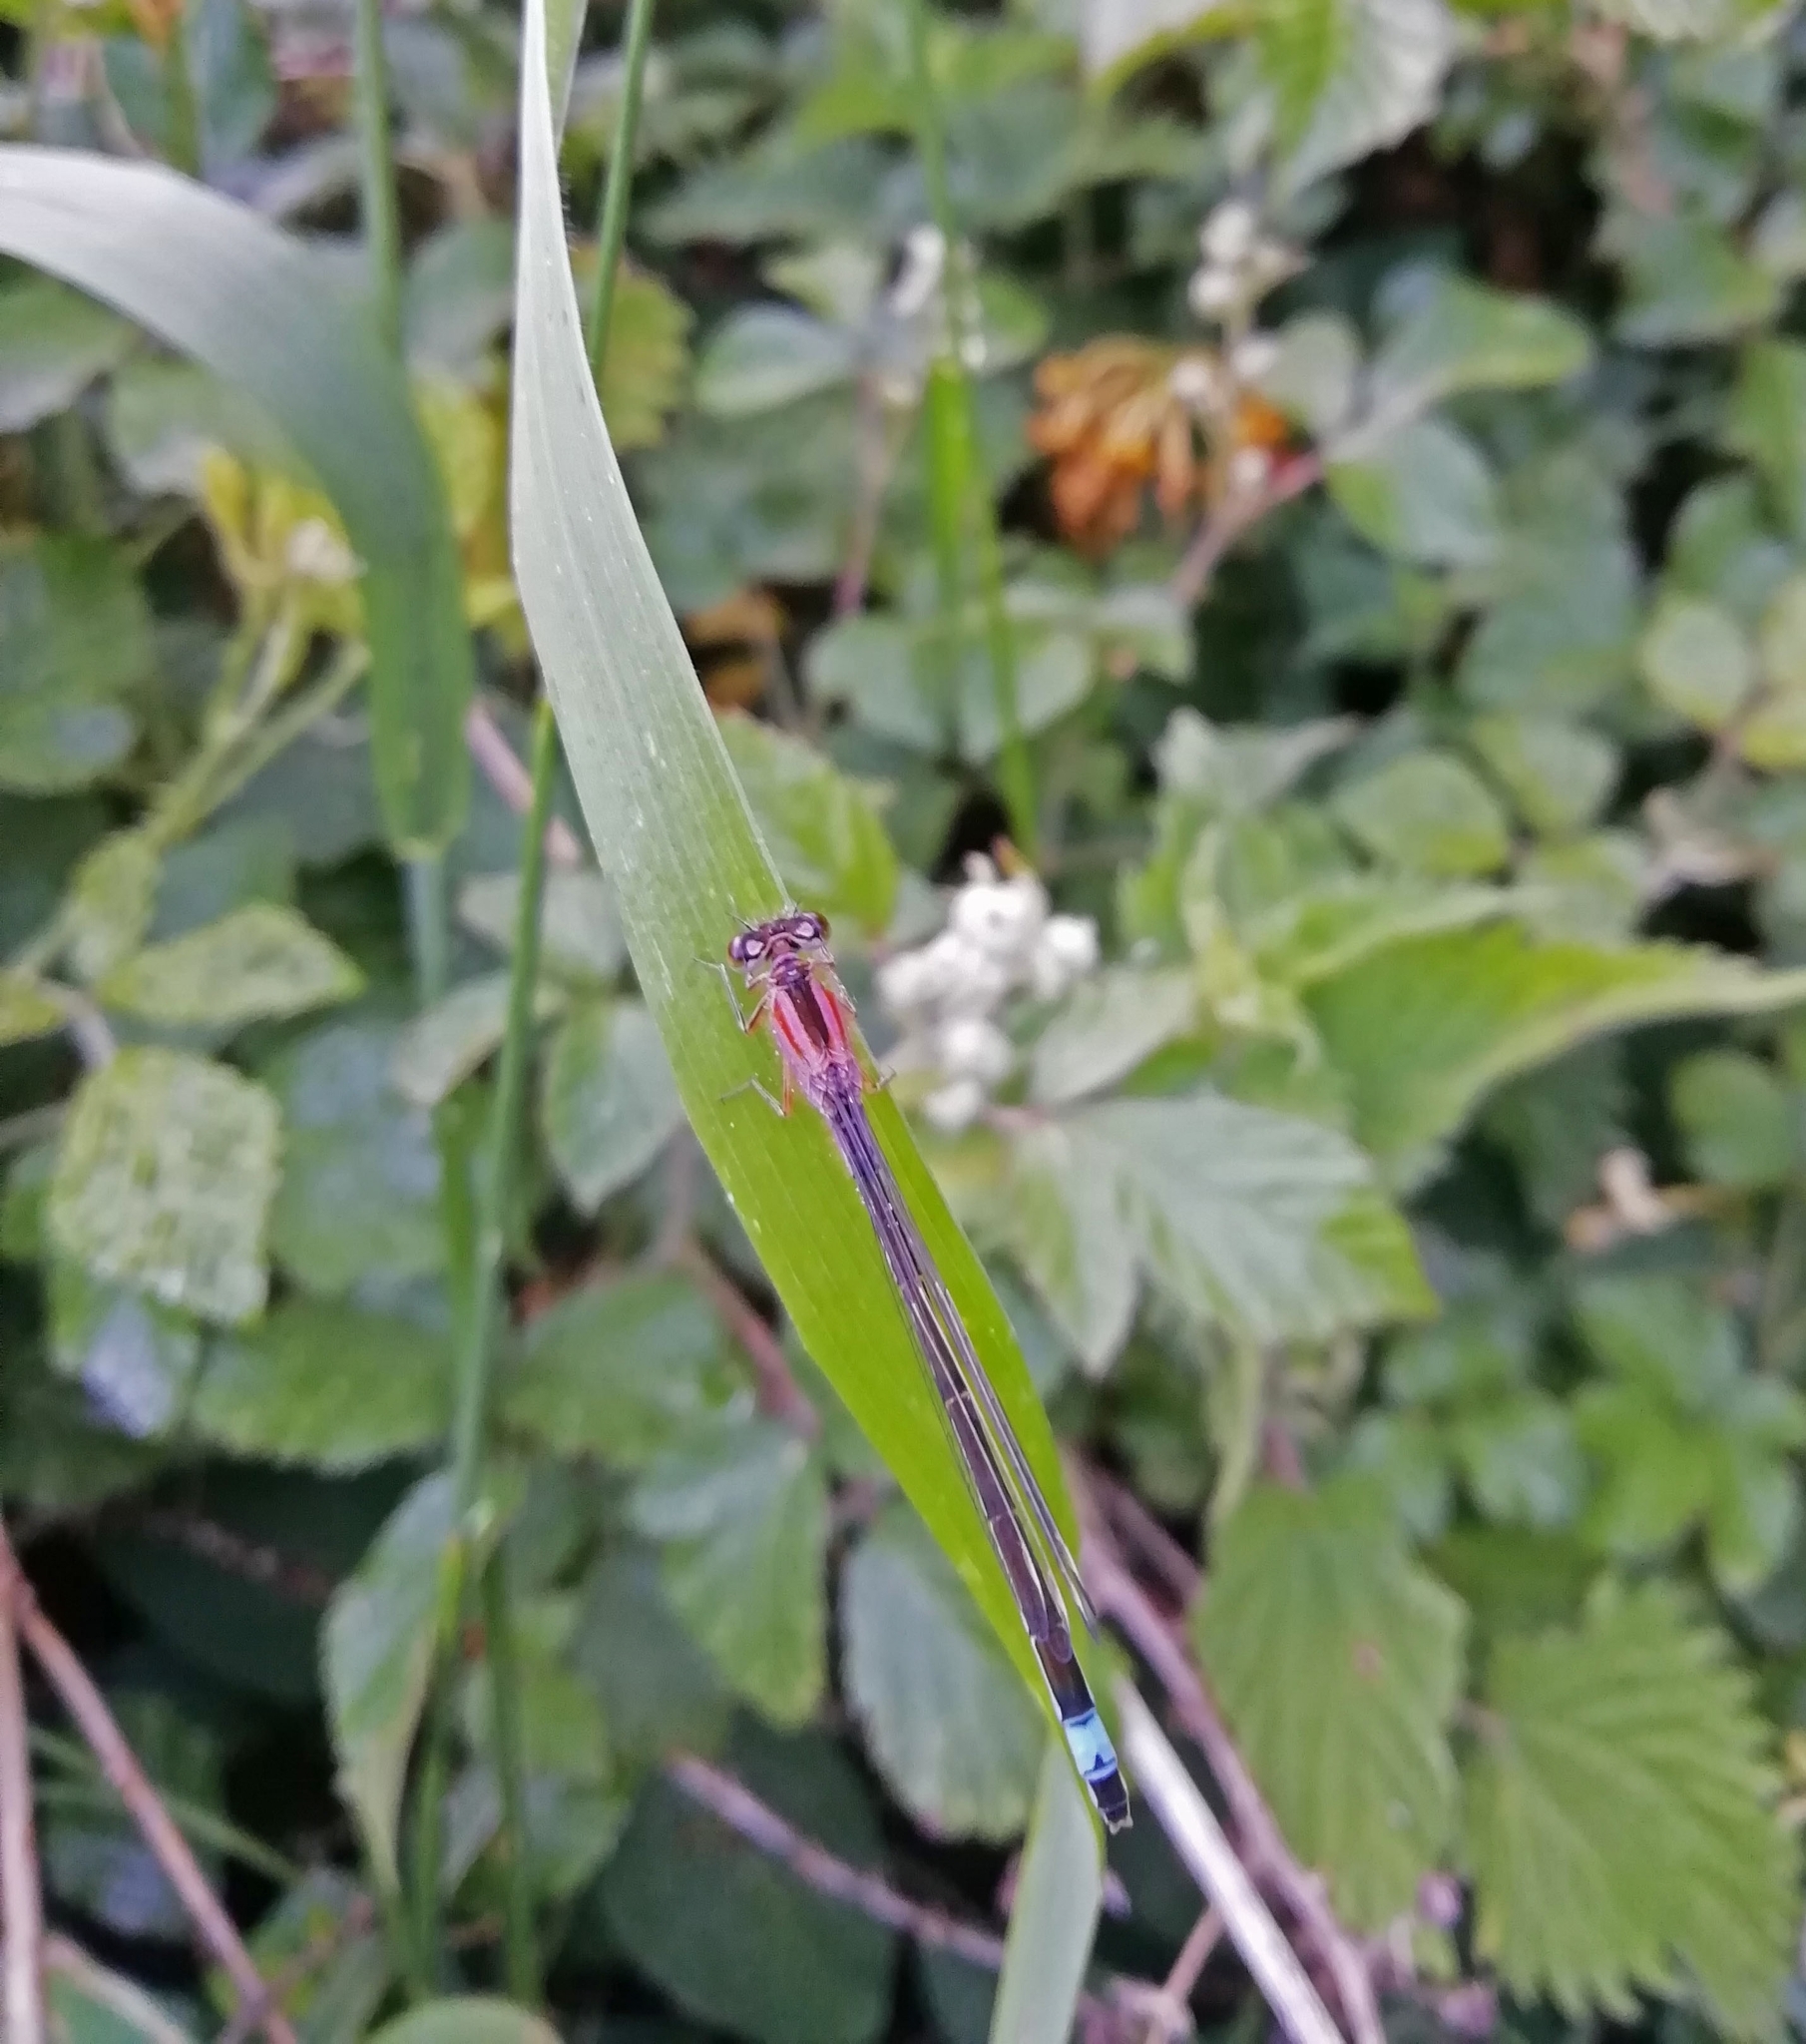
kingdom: Animalia
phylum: Arthropoda
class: Insecta
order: Odonata
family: Coenagrionidae
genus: Ischnura
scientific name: Ischnura elegans
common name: Blue-tailed damselfly
